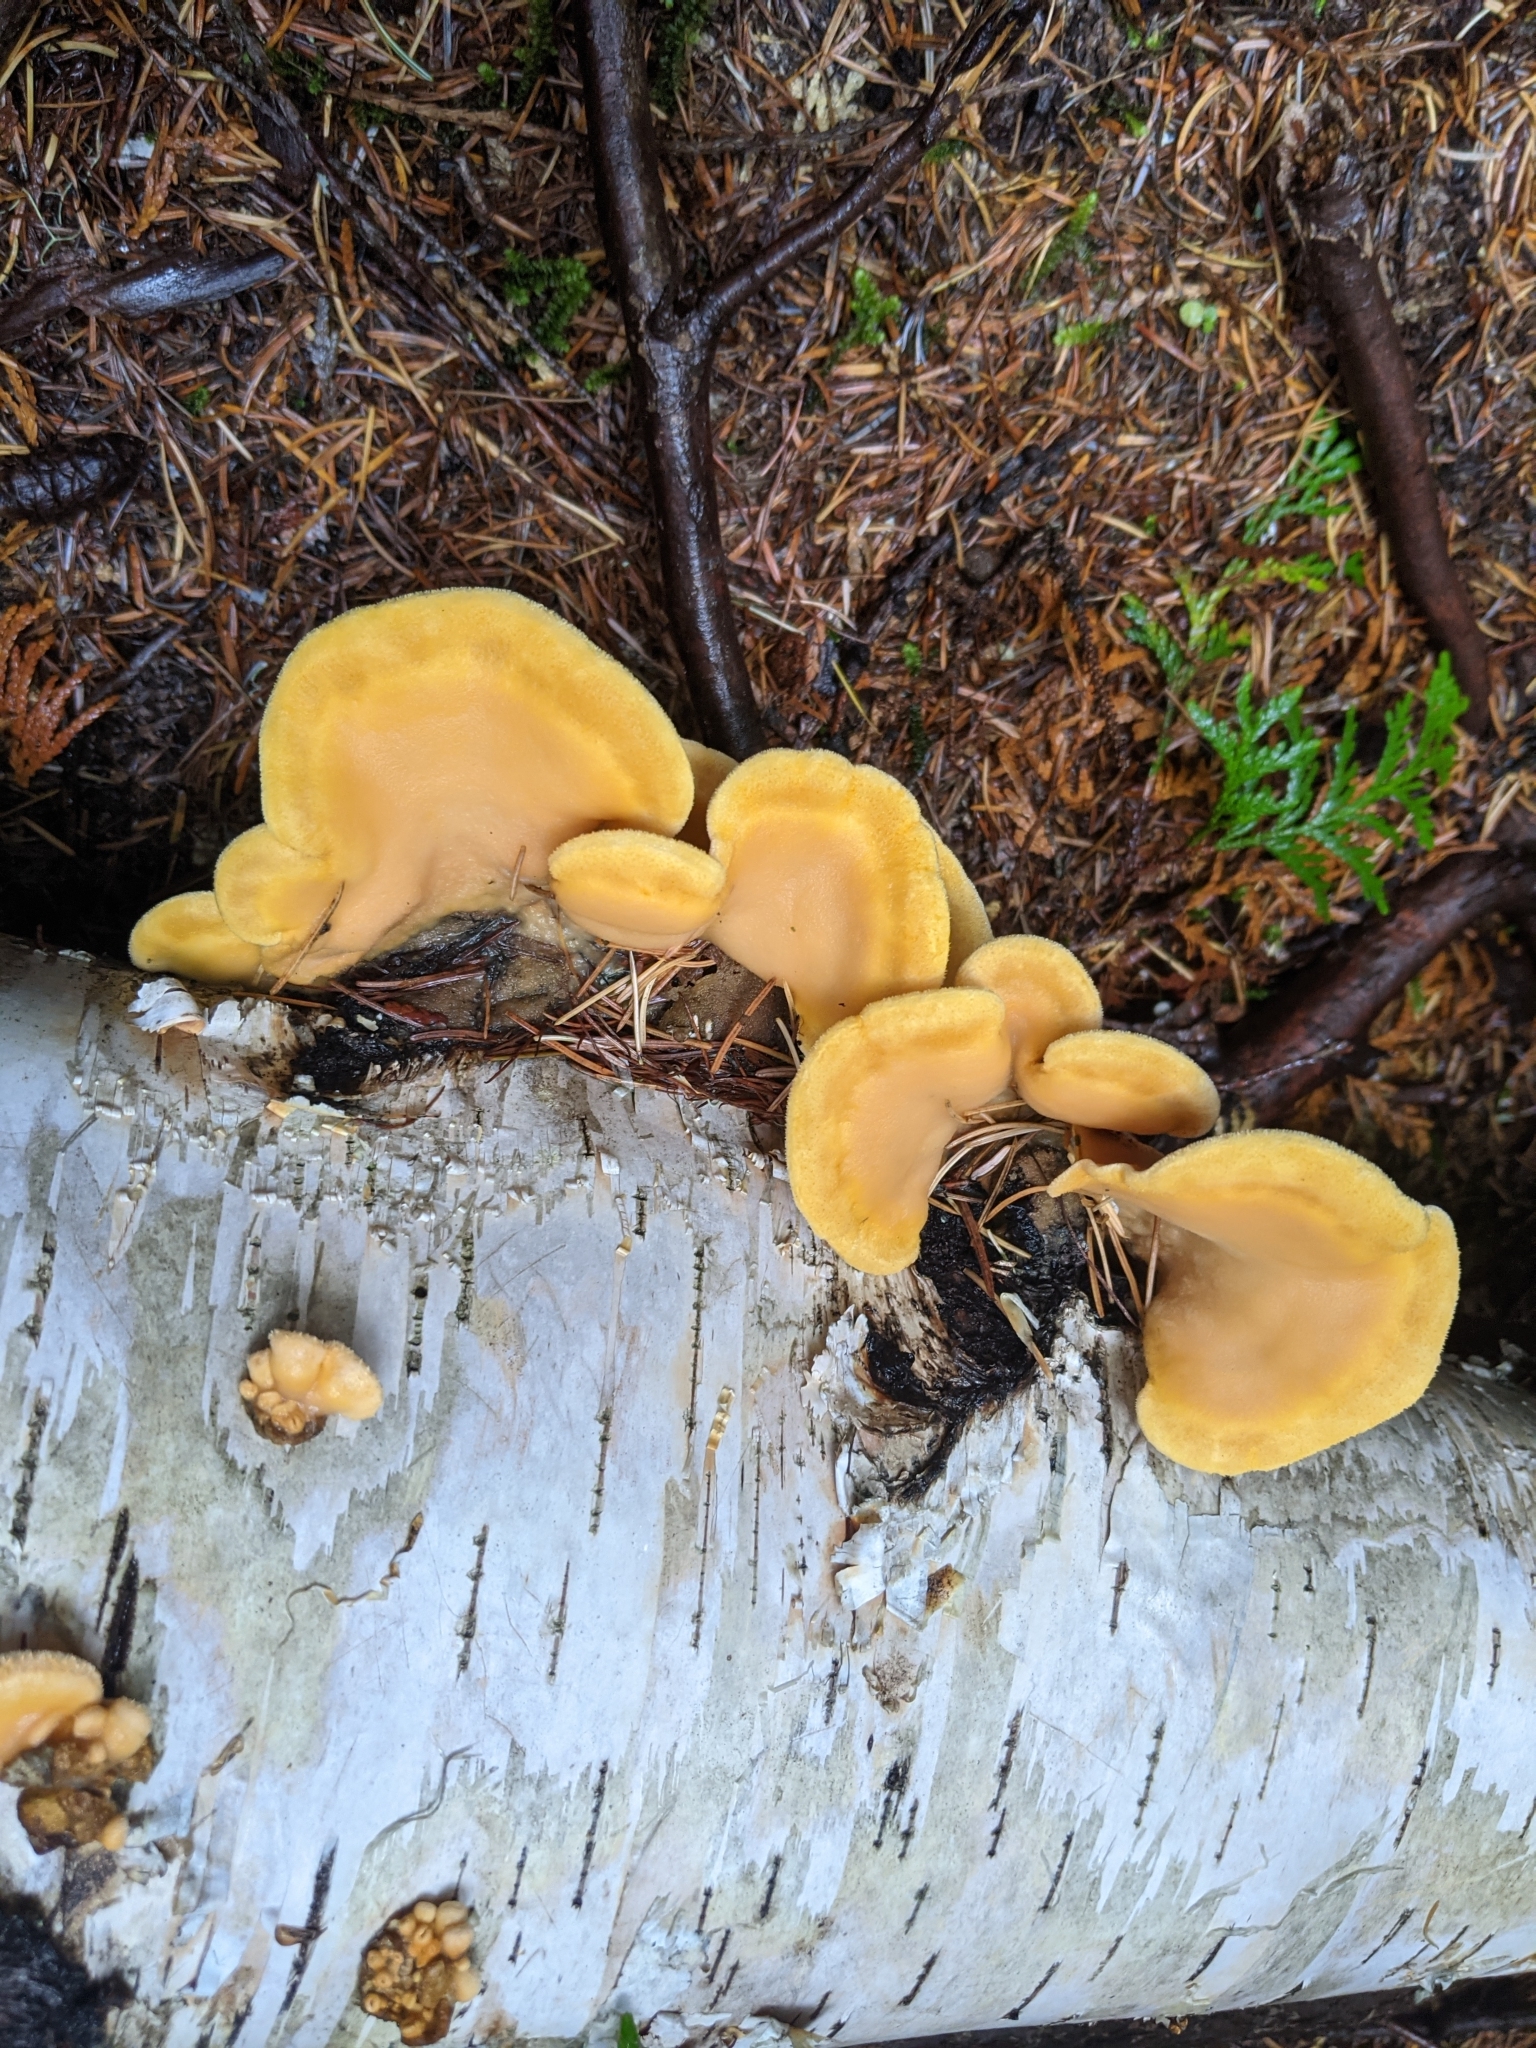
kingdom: Fungi
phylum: Basidiomycota
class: Agaricomycetes
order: Agaricales
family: Phyllotopsidaceae
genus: Phyllotopsis
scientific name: Phyllotopsis nidulans
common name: Orange mock oyster
